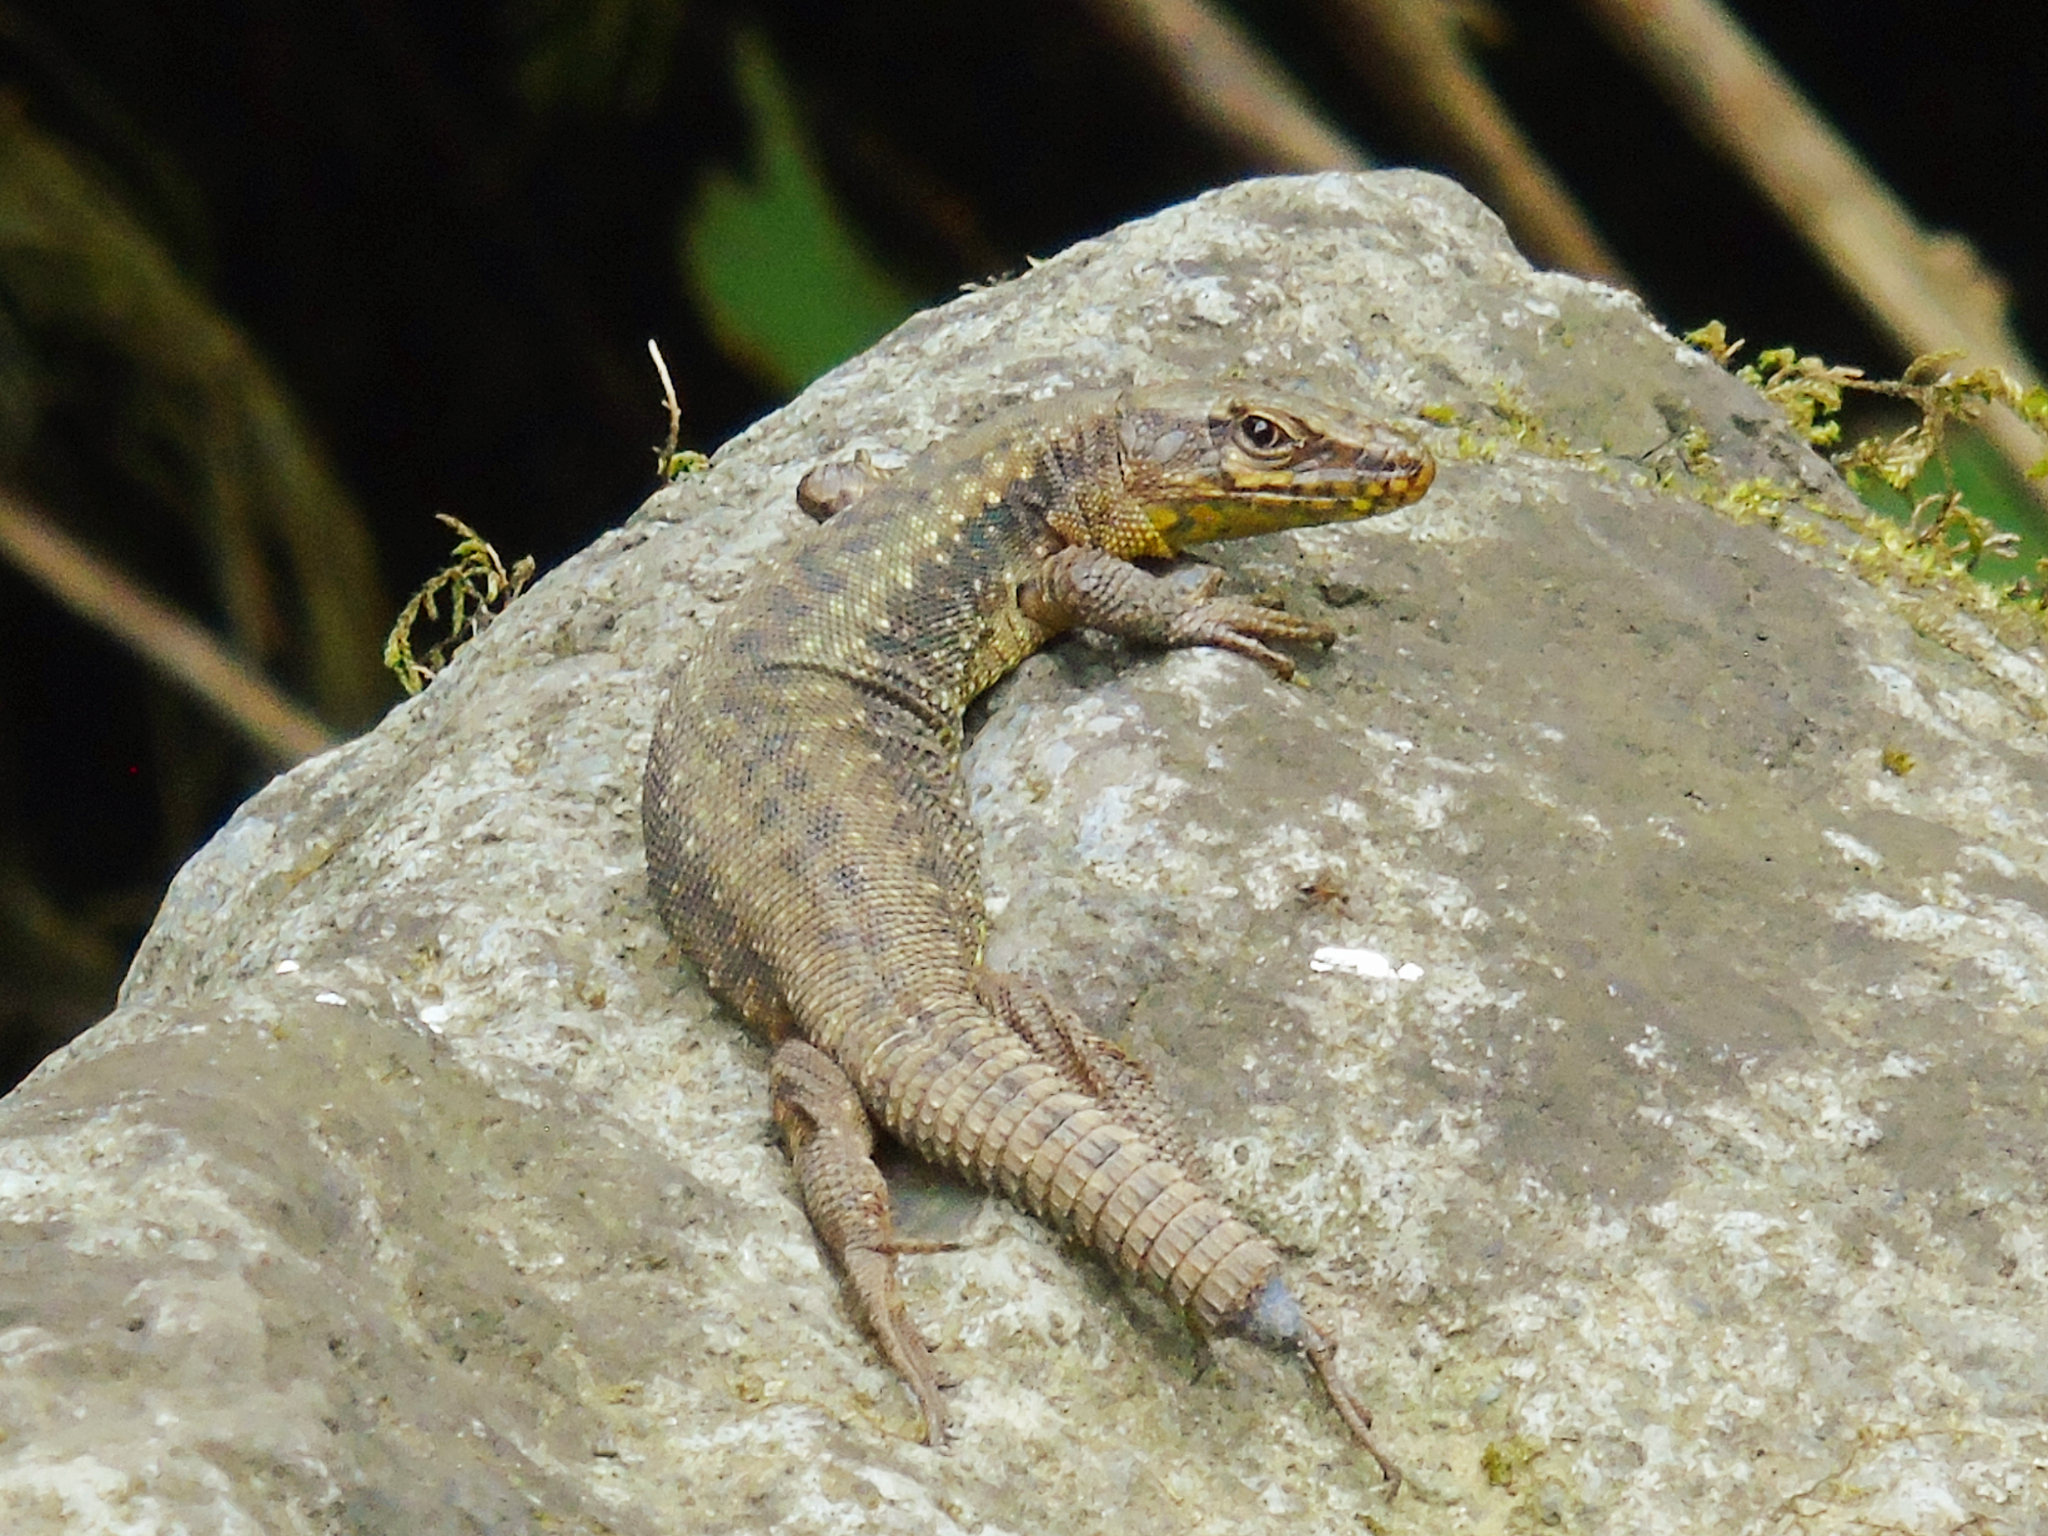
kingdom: Animalia
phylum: Chordata
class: Squamata
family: Lacertidae
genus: Darevskia
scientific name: Darevskia rudis
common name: Spiny-tailed lizard
